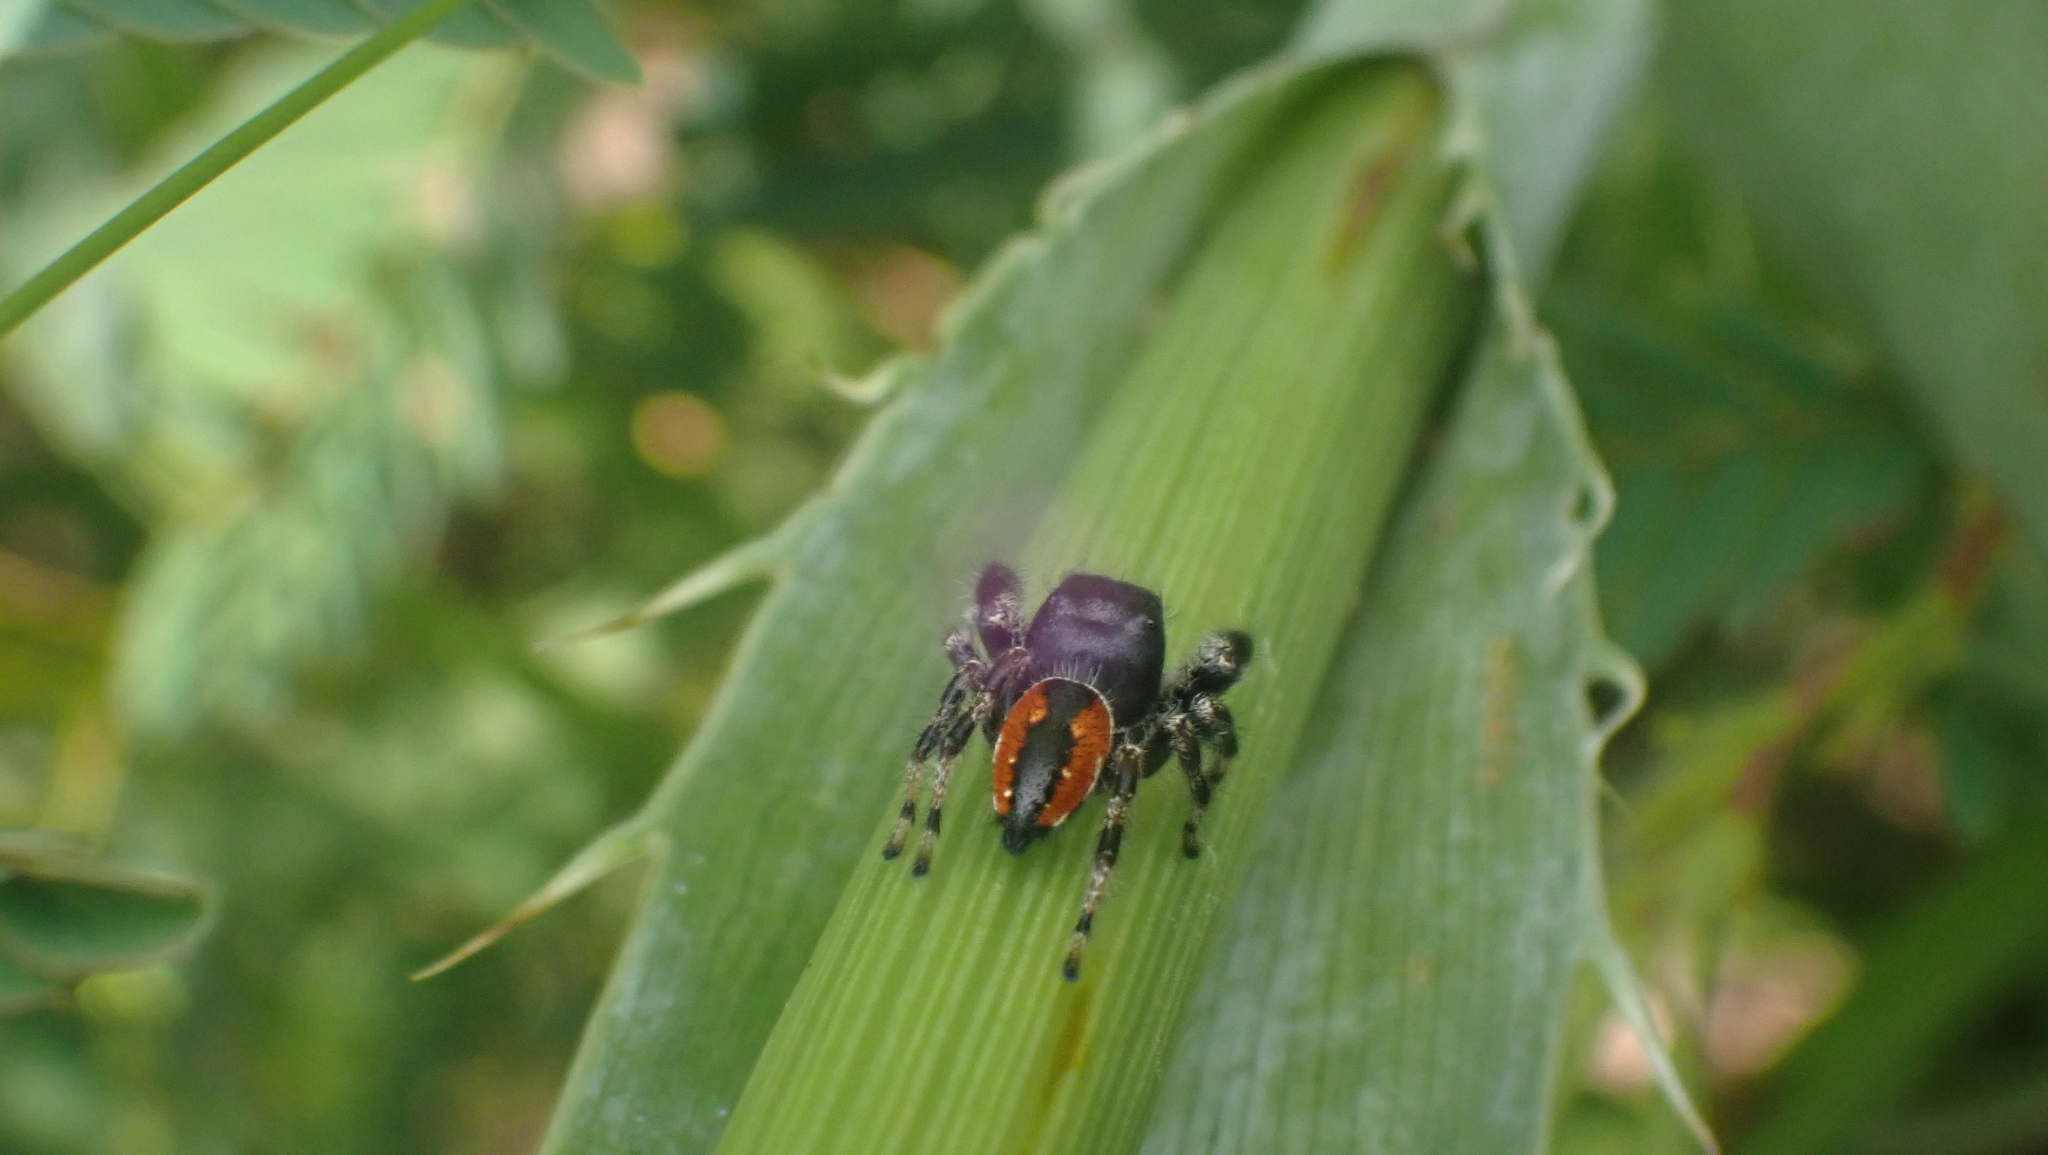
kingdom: Animalia
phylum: Arthropoda
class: Arachnida
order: Araneae
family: Salticidae
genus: Phidippus
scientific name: Phidippus clarus
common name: Brilliant jumping spider
